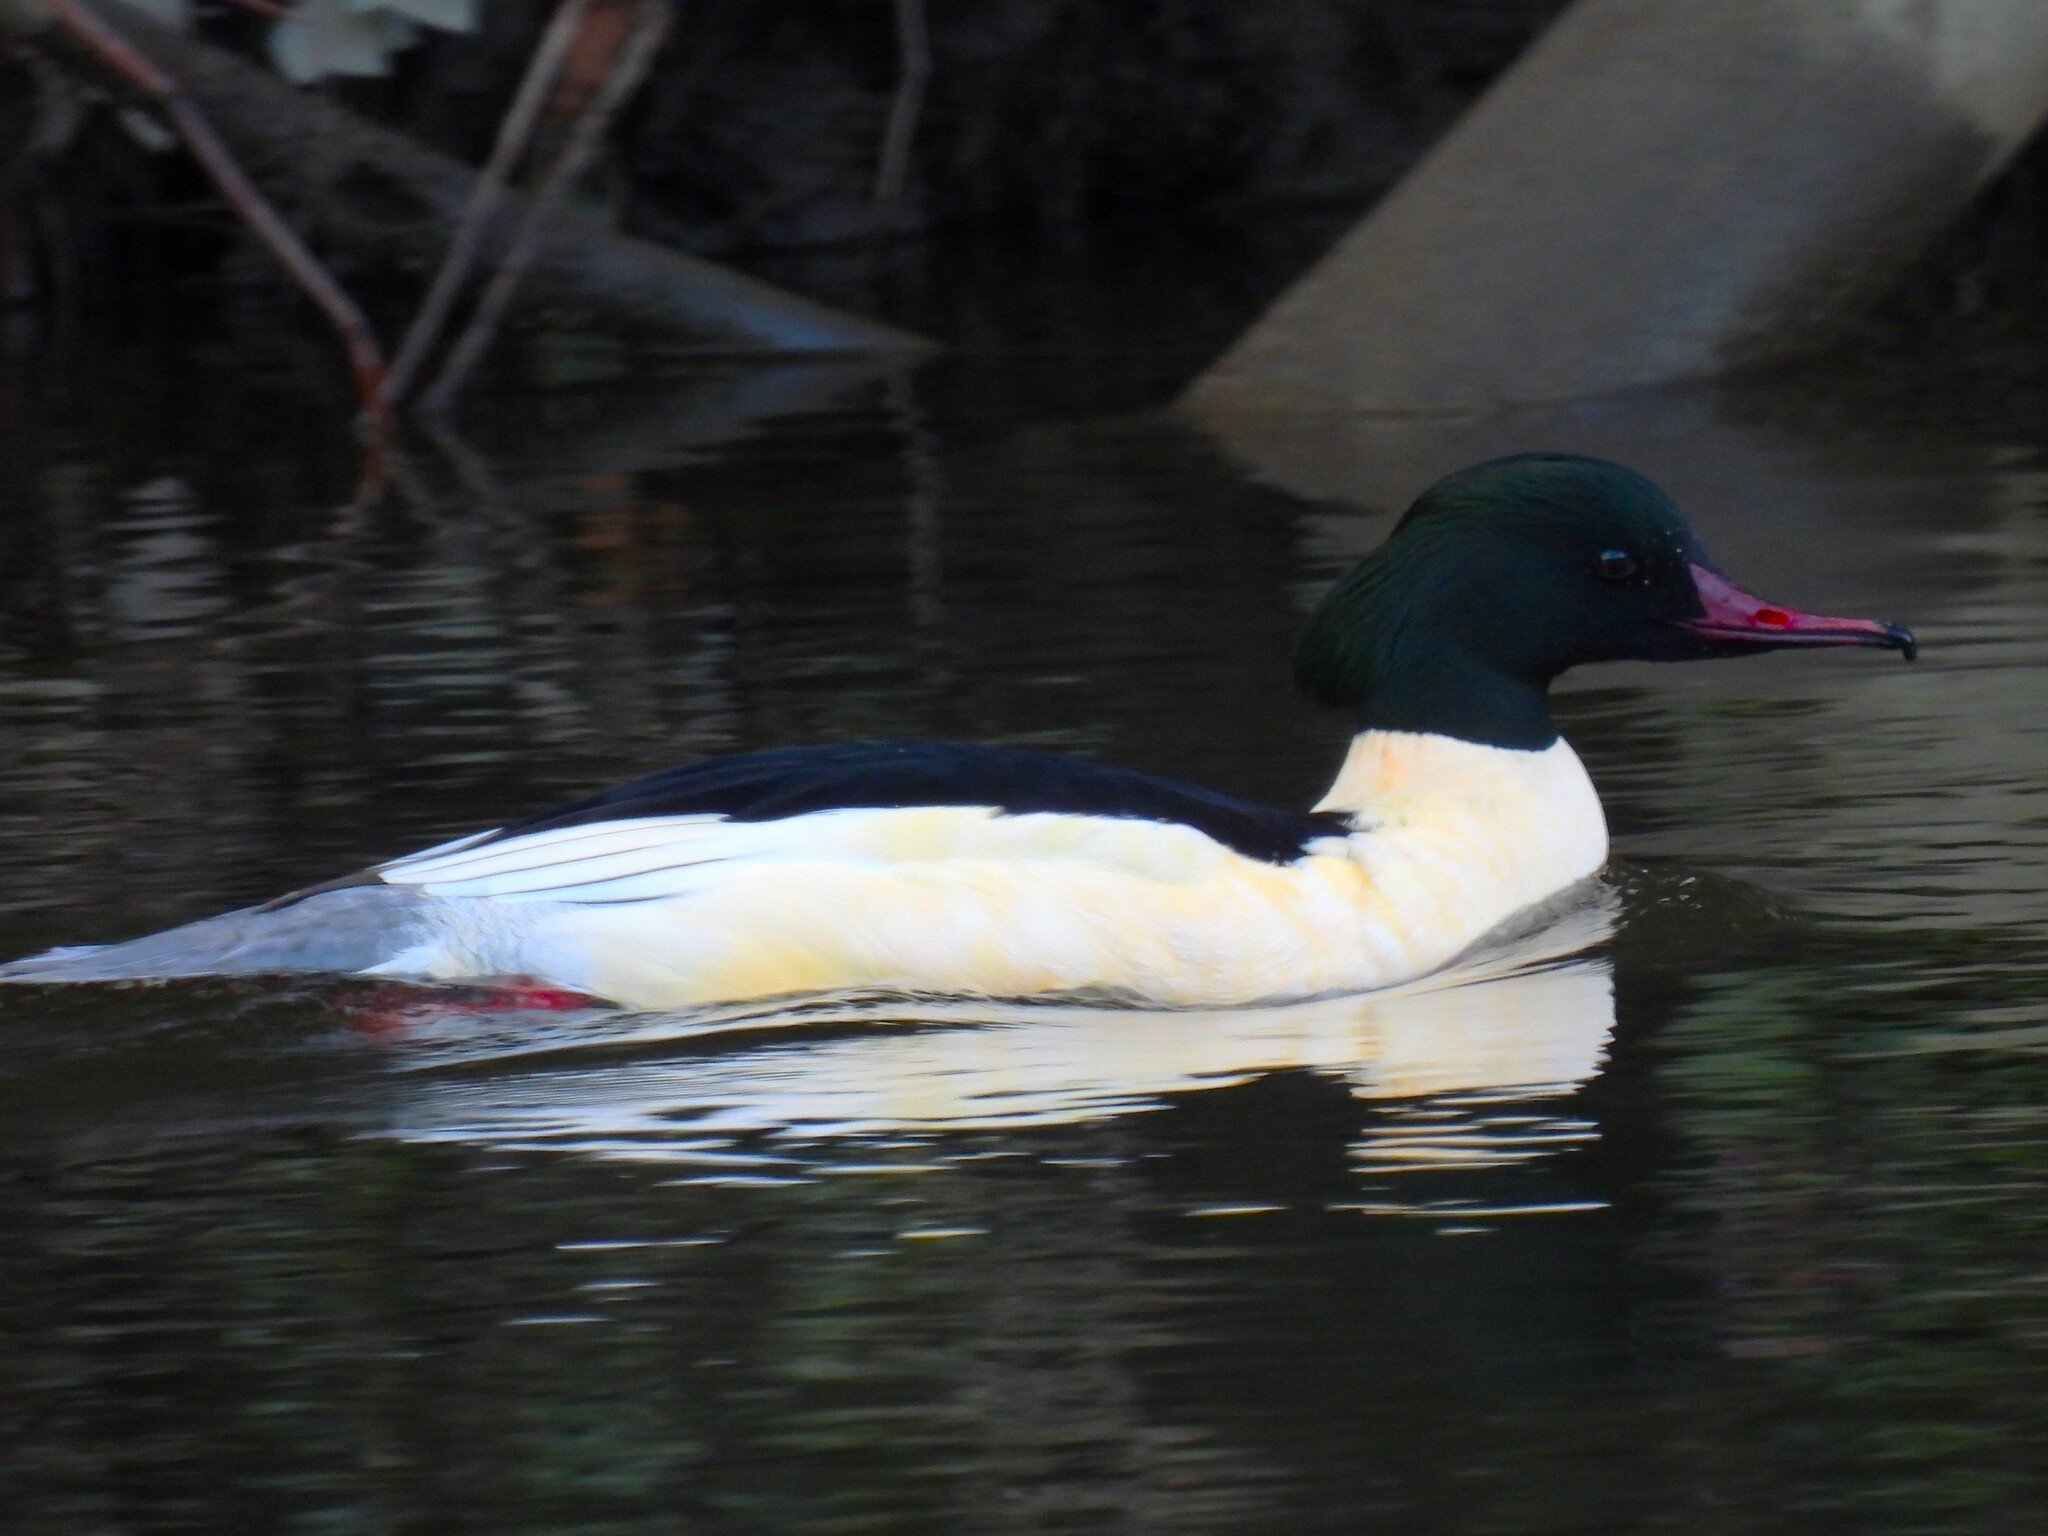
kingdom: Animalia
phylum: Chordata
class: Aves
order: Anseriformes
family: Anatidae
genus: Mergus
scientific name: Mergus merganser
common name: Common merganser
